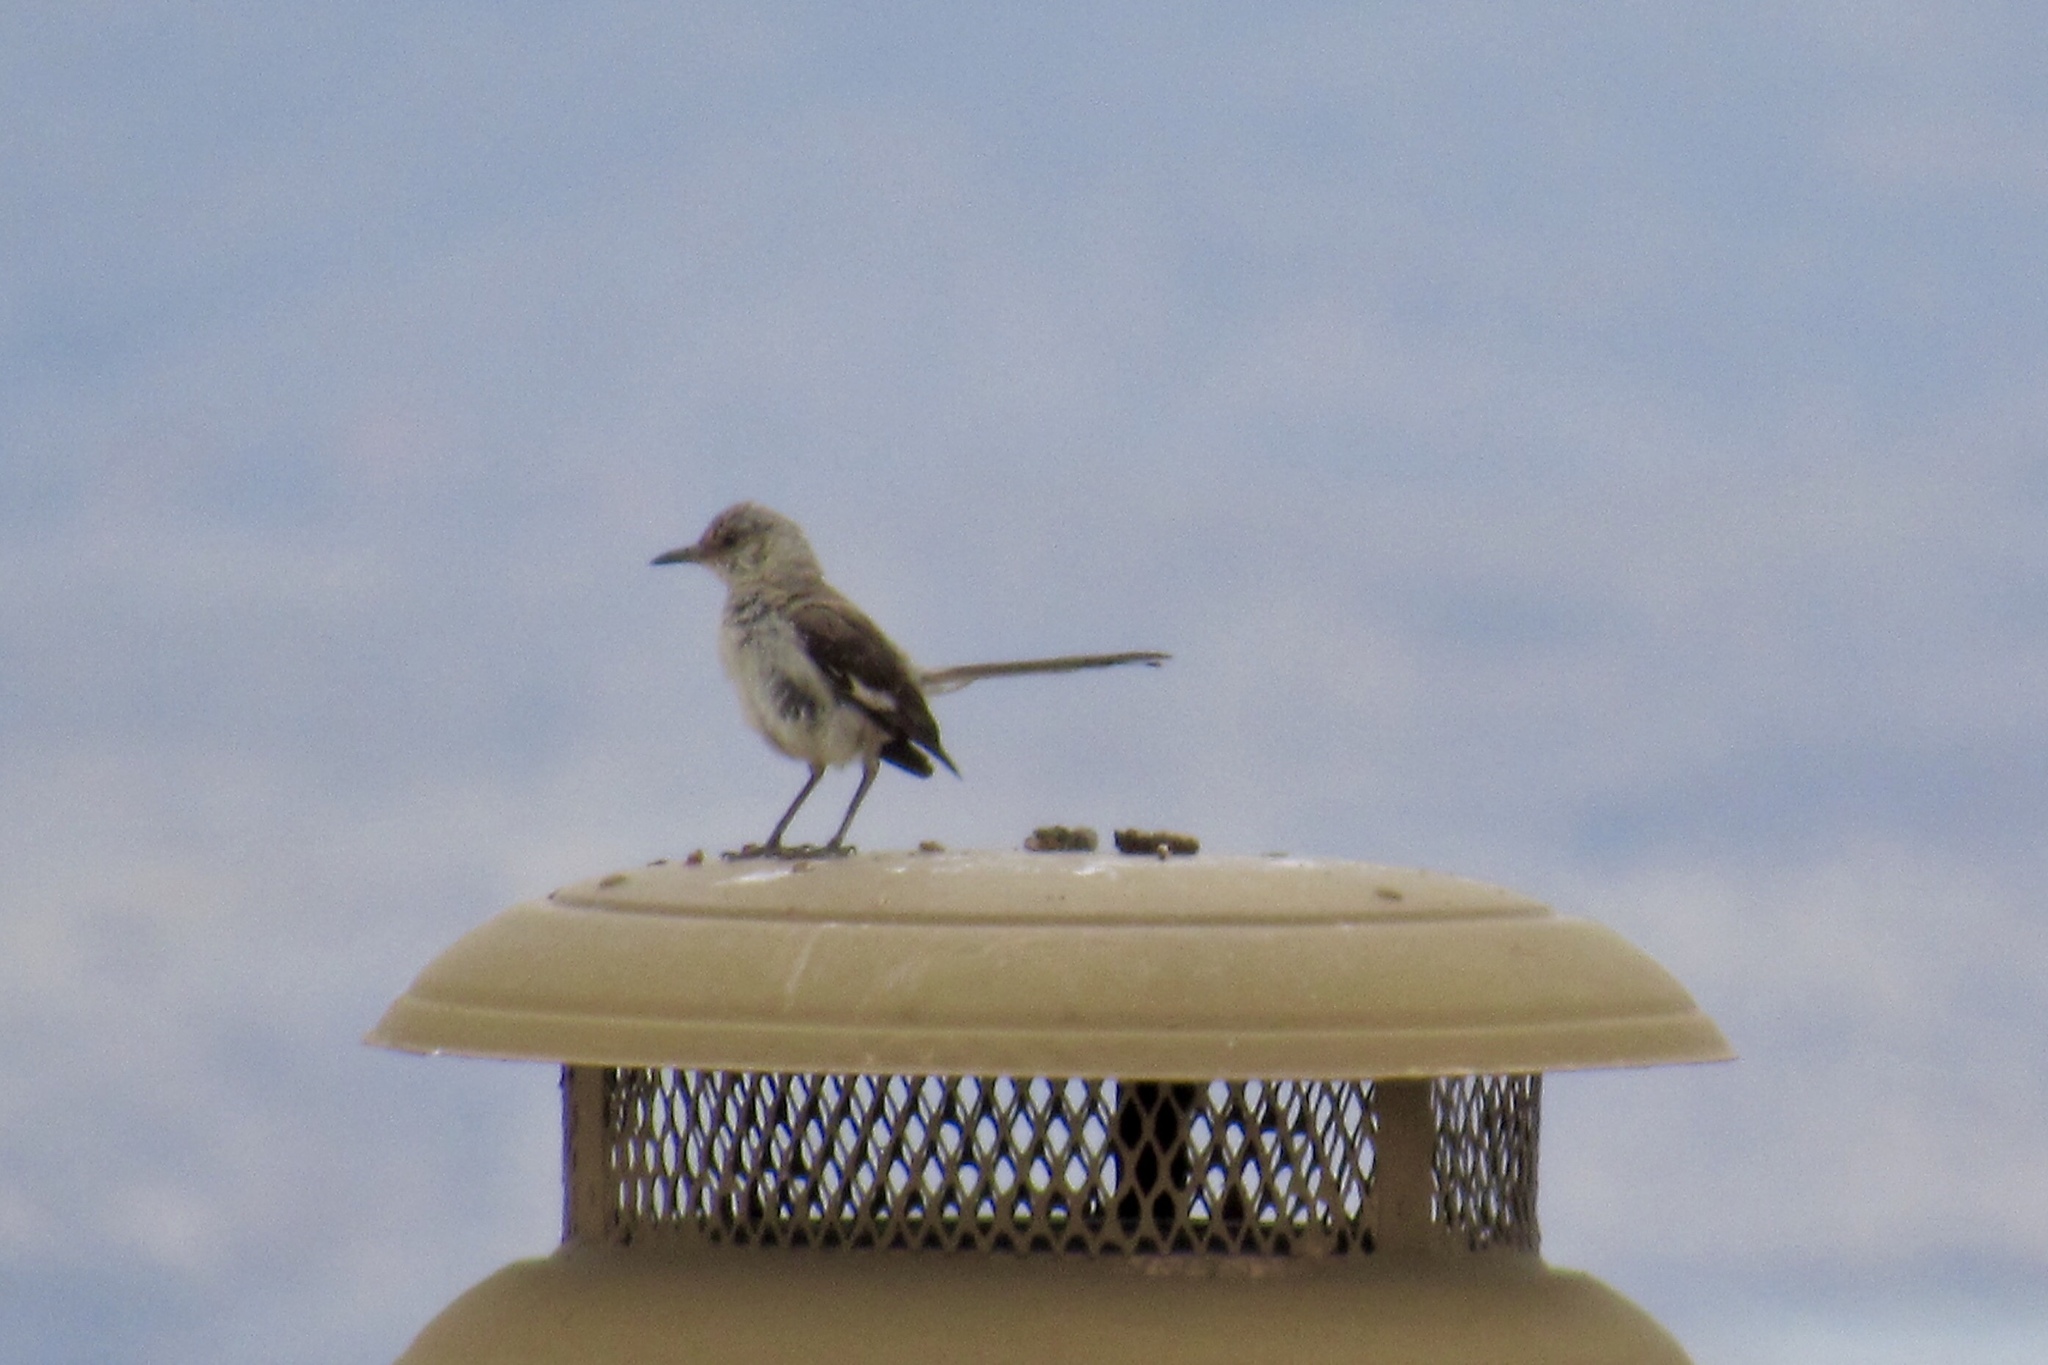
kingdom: Animalia
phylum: Chordata
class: Aves
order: Passeriformes
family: Mimidae
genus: Mimus
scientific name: Mimus polyglottos
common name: Northern mockingbird
